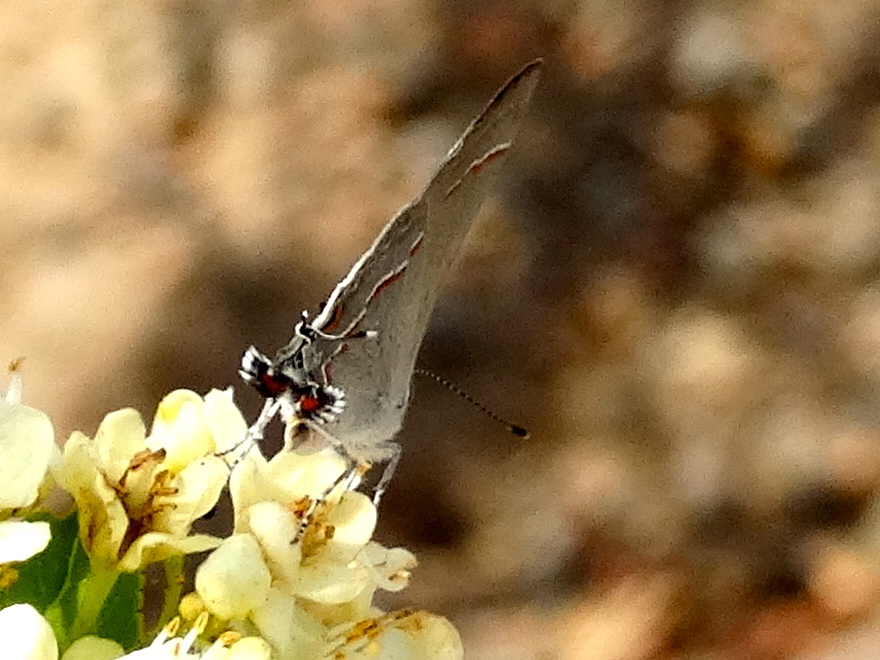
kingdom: Animalia
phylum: Arthropoda
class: Insecta
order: Lepidoptera
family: Lycaenidae
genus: Thecla
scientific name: Thecla bebrycia
